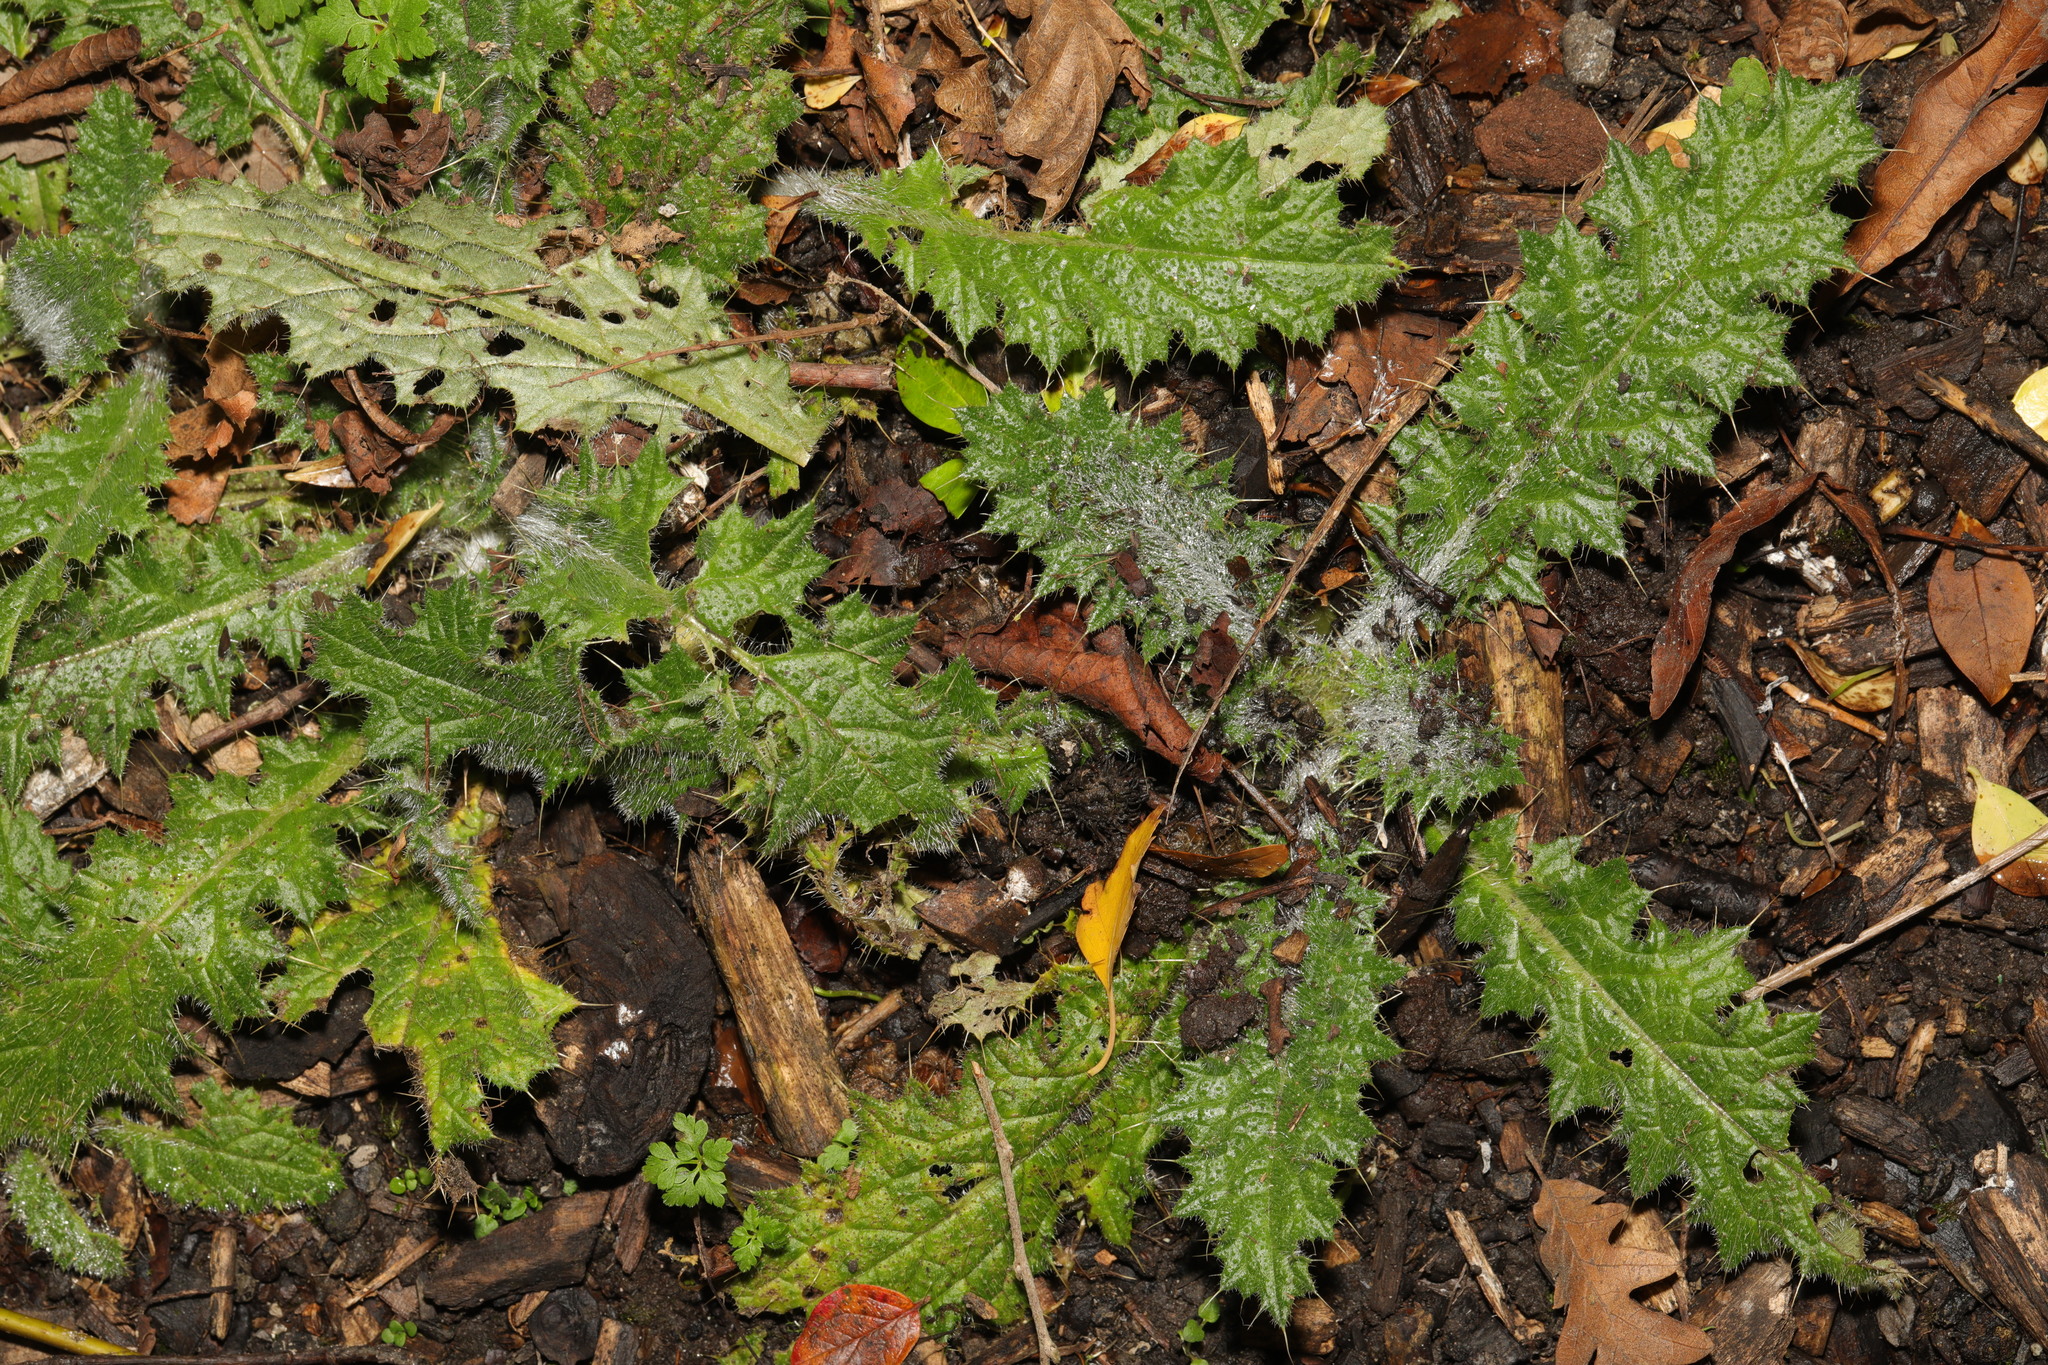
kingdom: Plantae
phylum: Tracheophyta
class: Magnoliopsida
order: Asterales
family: Asteraceae
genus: Cirsium
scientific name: Cirsium vulgare
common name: Bull thistle
